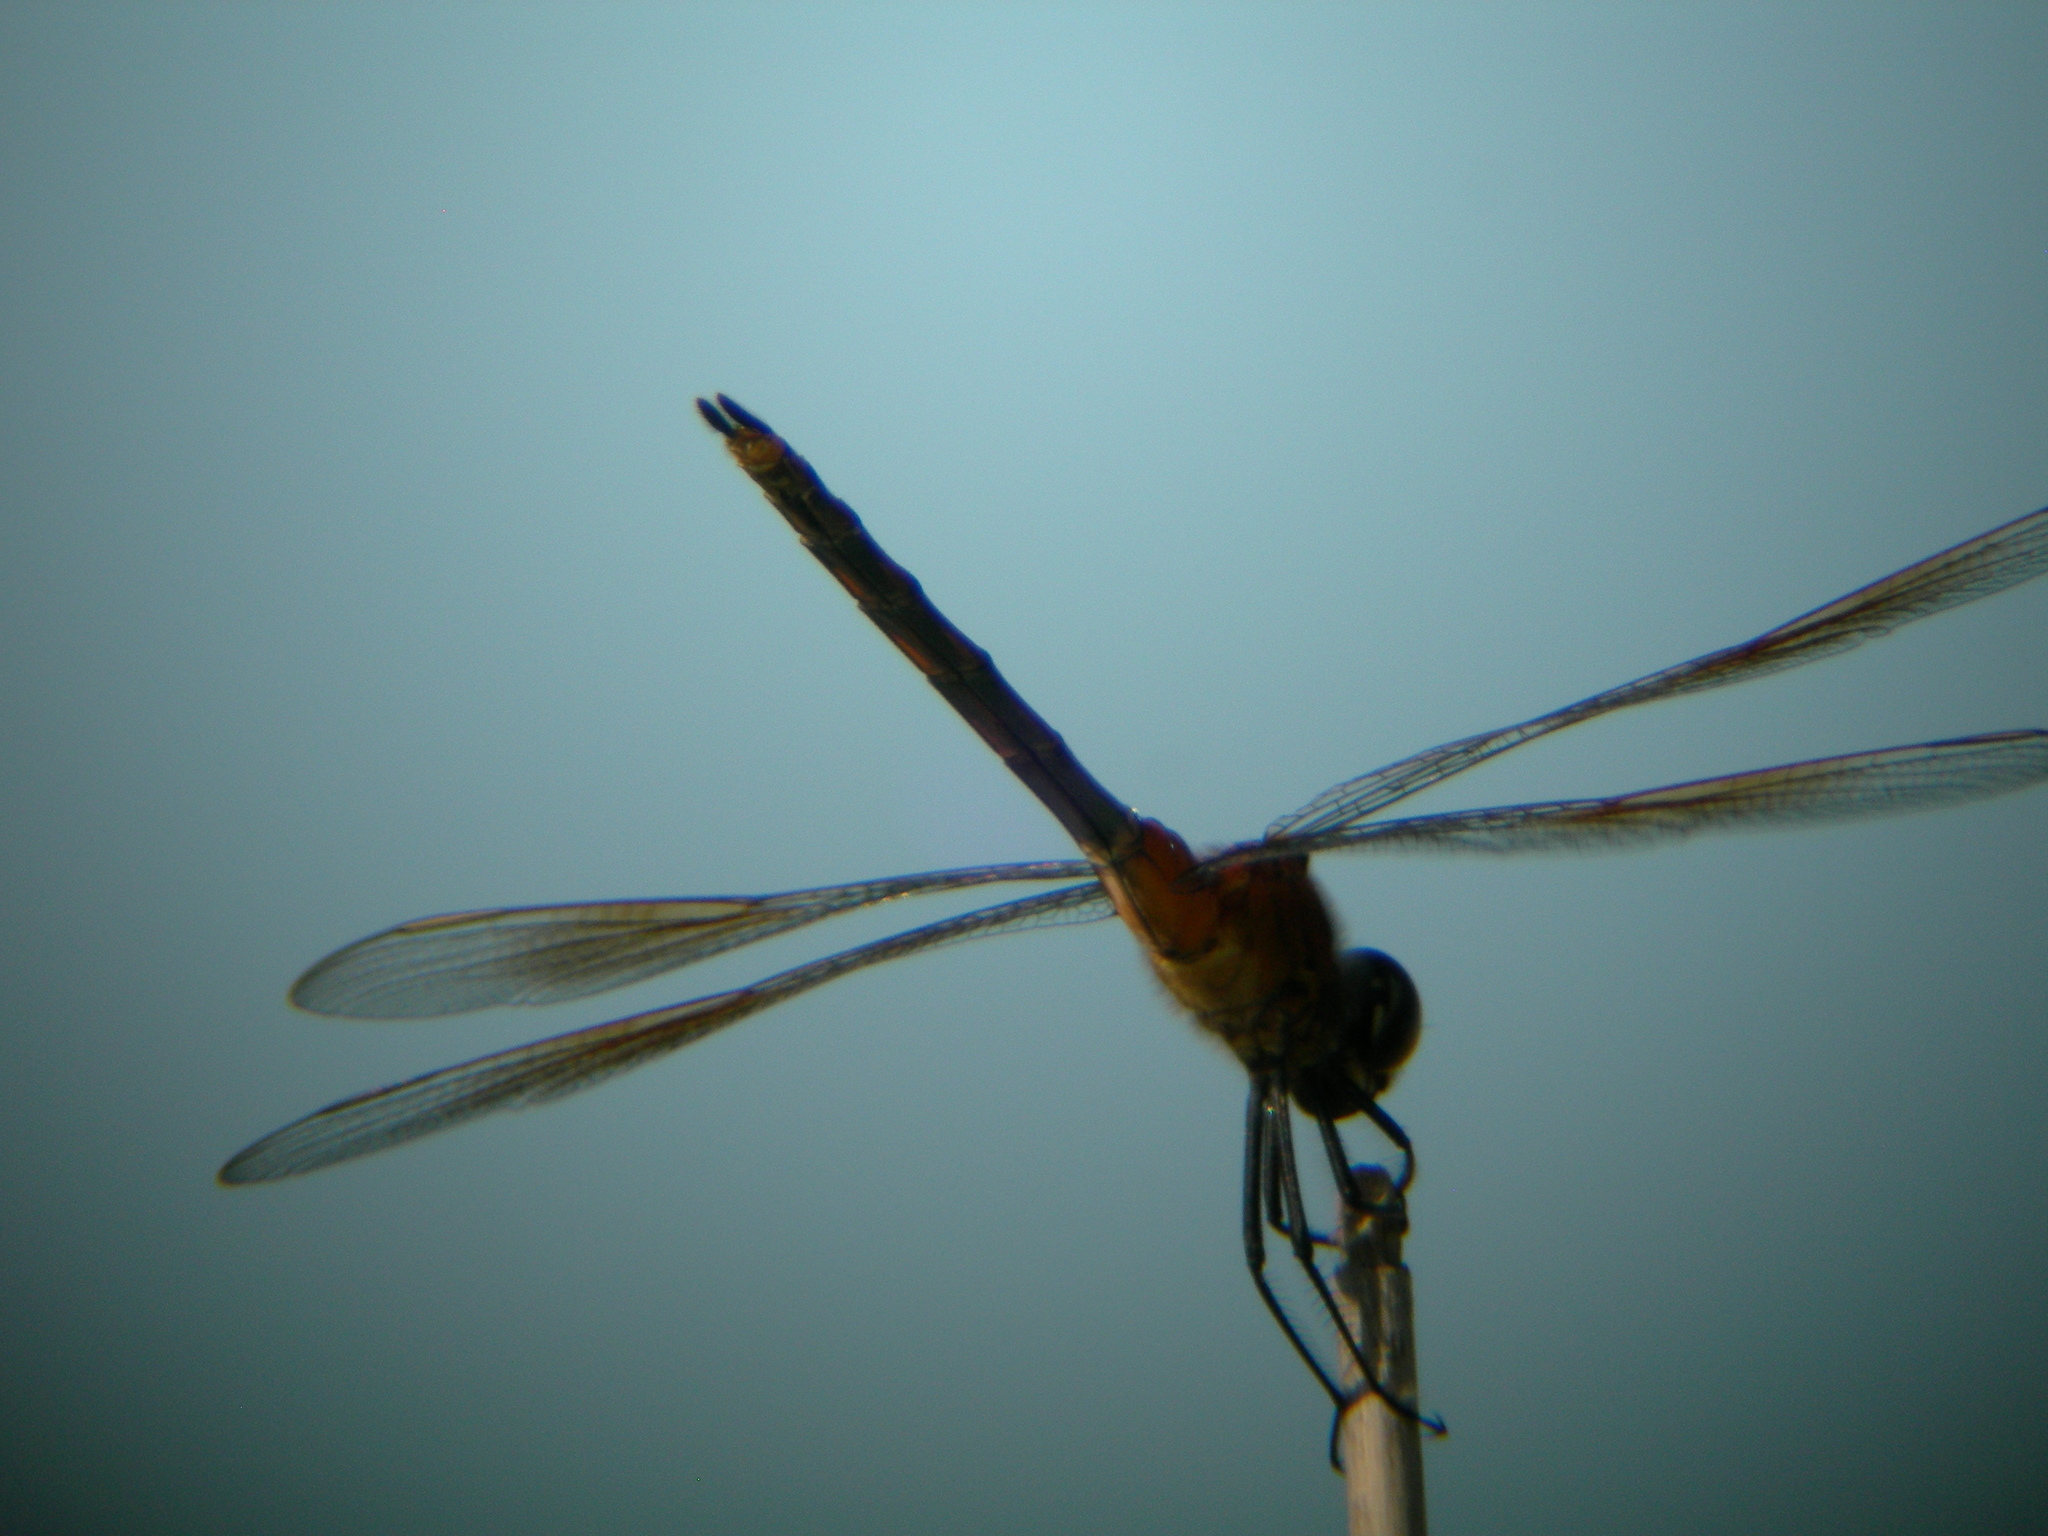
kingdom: Animalia
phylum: Arthropoda
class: Insecta
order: Odonata
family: Libellulidae
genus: Brachymesia
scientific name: Brachymesia gravida
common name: Four-spotted pennant
